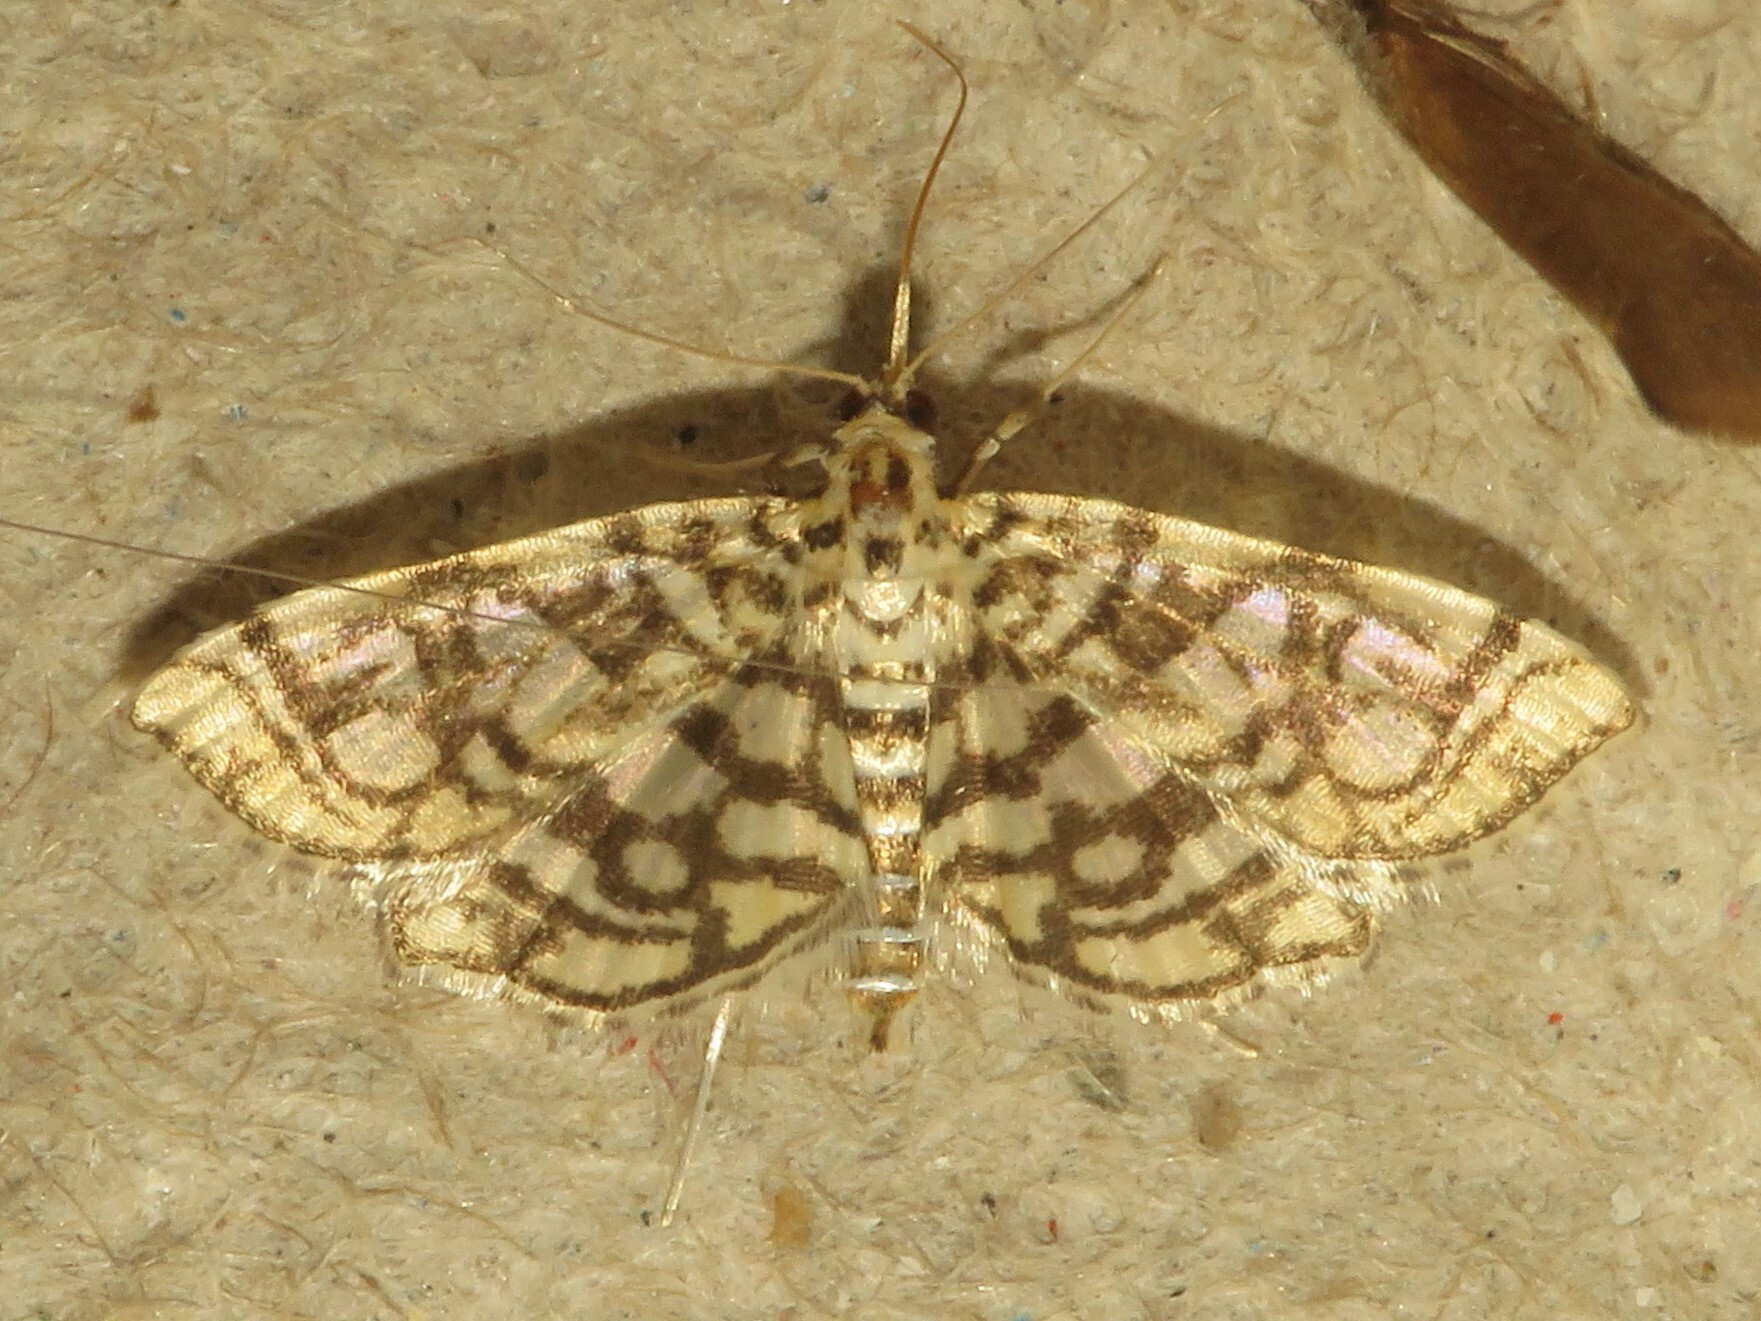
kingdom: Animalia
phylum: Arthropoda
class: Insecta
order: Lepidoptera
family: Crambidae
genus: Lygropia
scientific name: Lygropia rivulalis
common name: Bog lygropia moth
